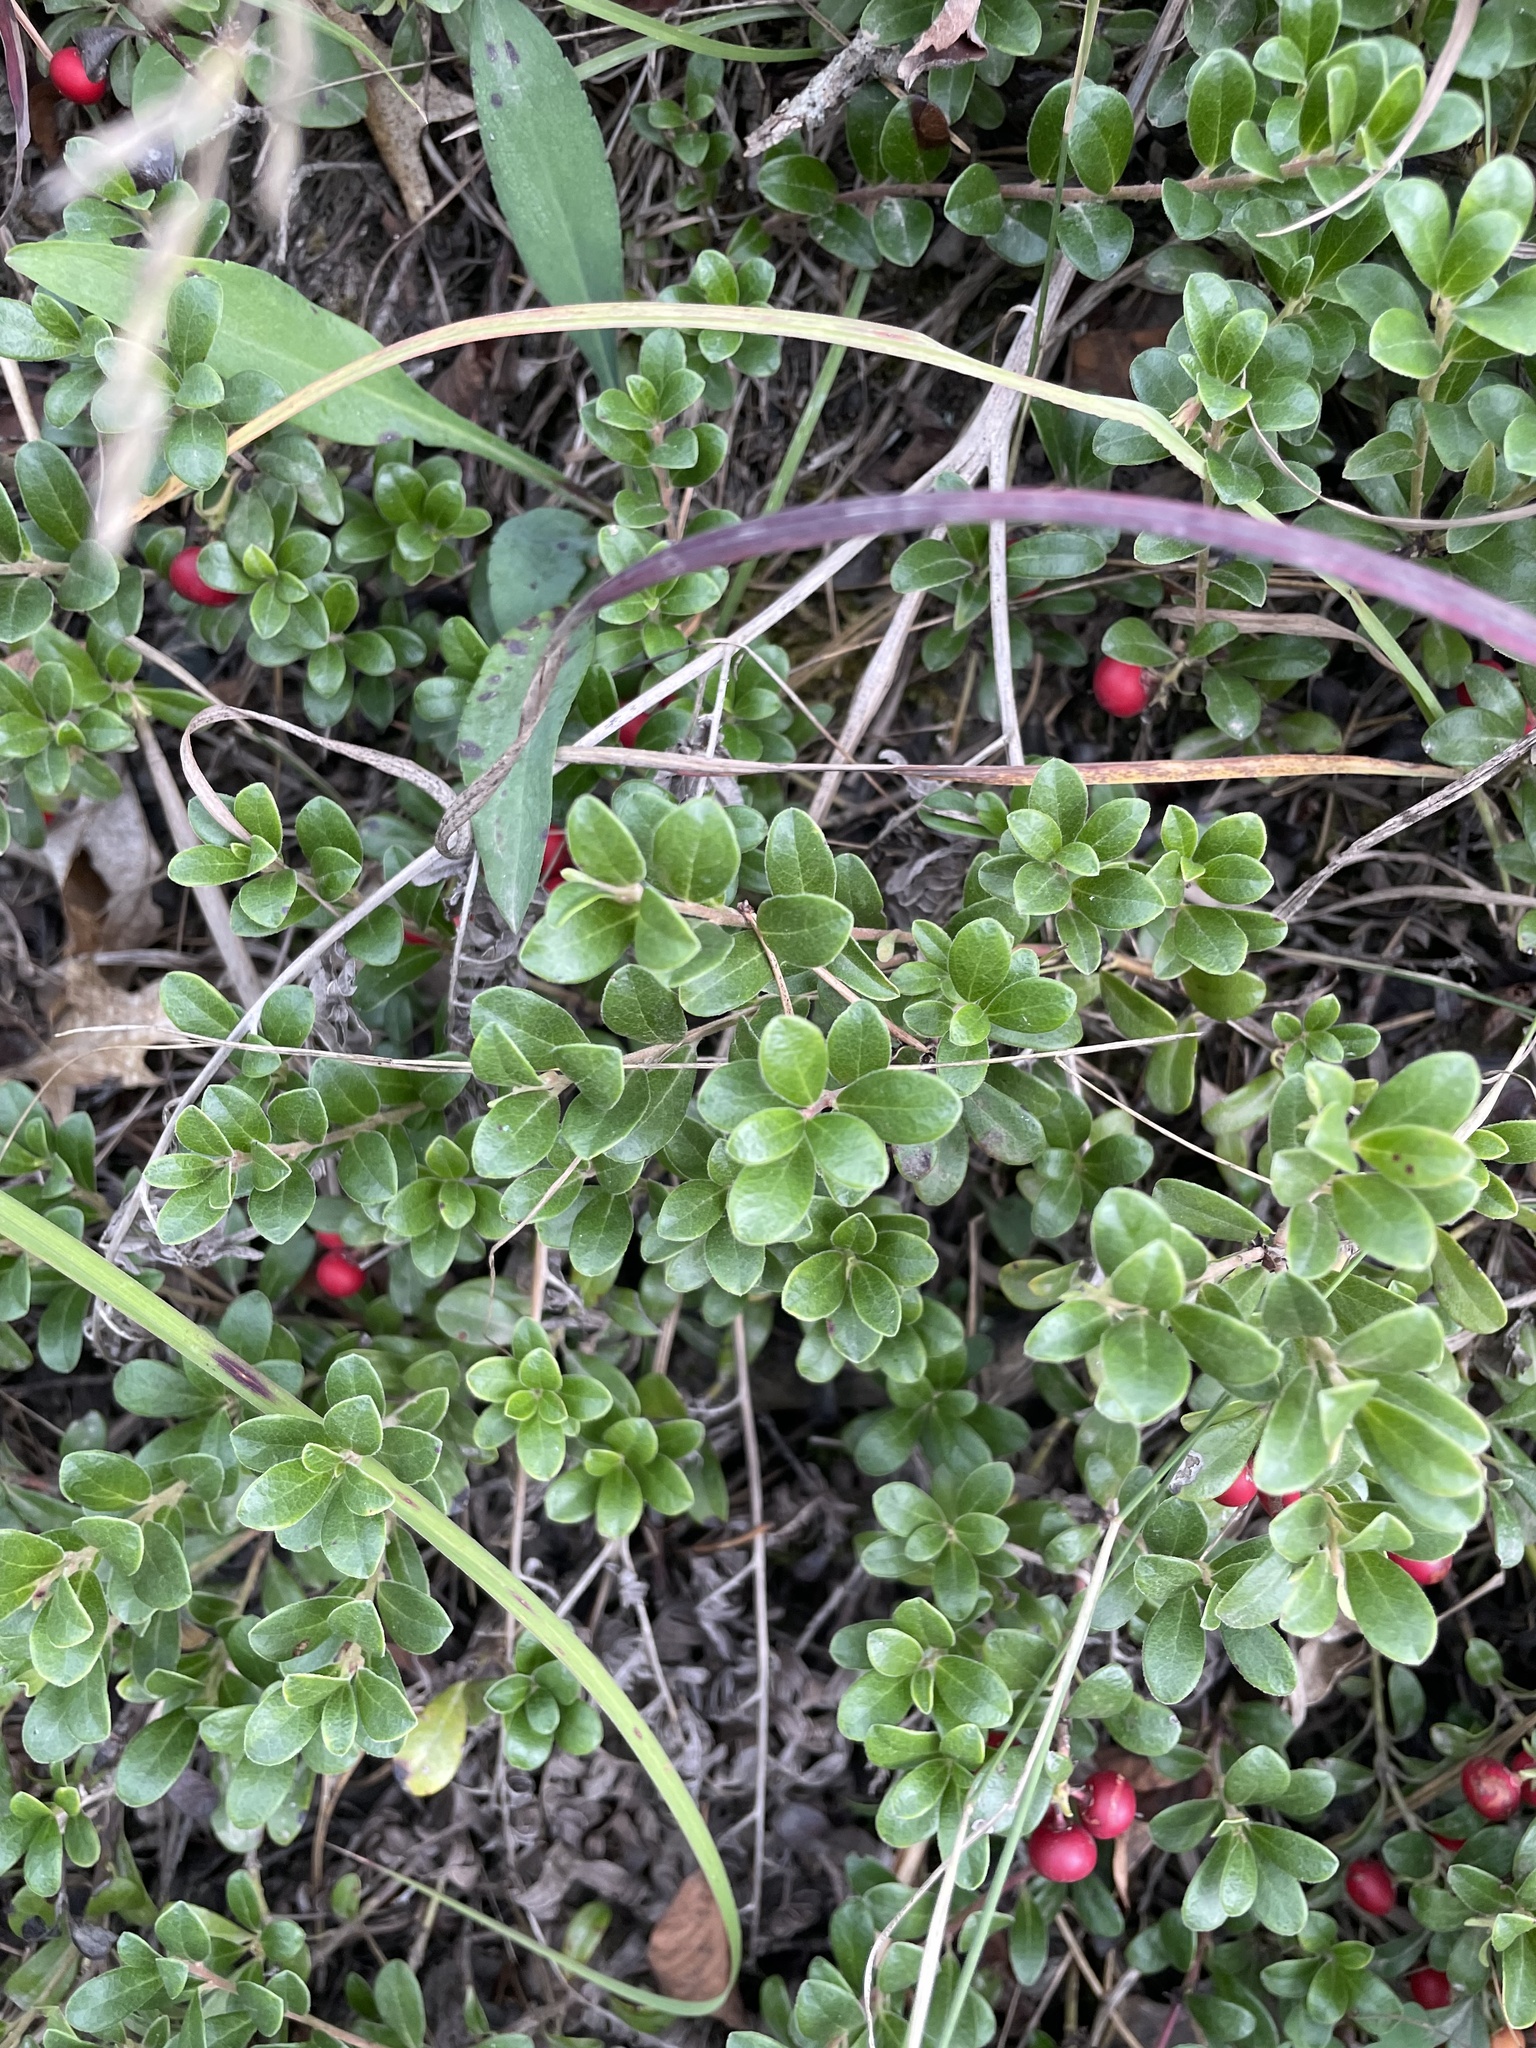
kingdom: Plantae
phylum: Tracheophyta
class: Magnoliopsida
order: Ericales
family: Ericaceae
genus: Arctostaphylos
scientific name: Arctostaphylos uva-ursi
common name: Bearberry
